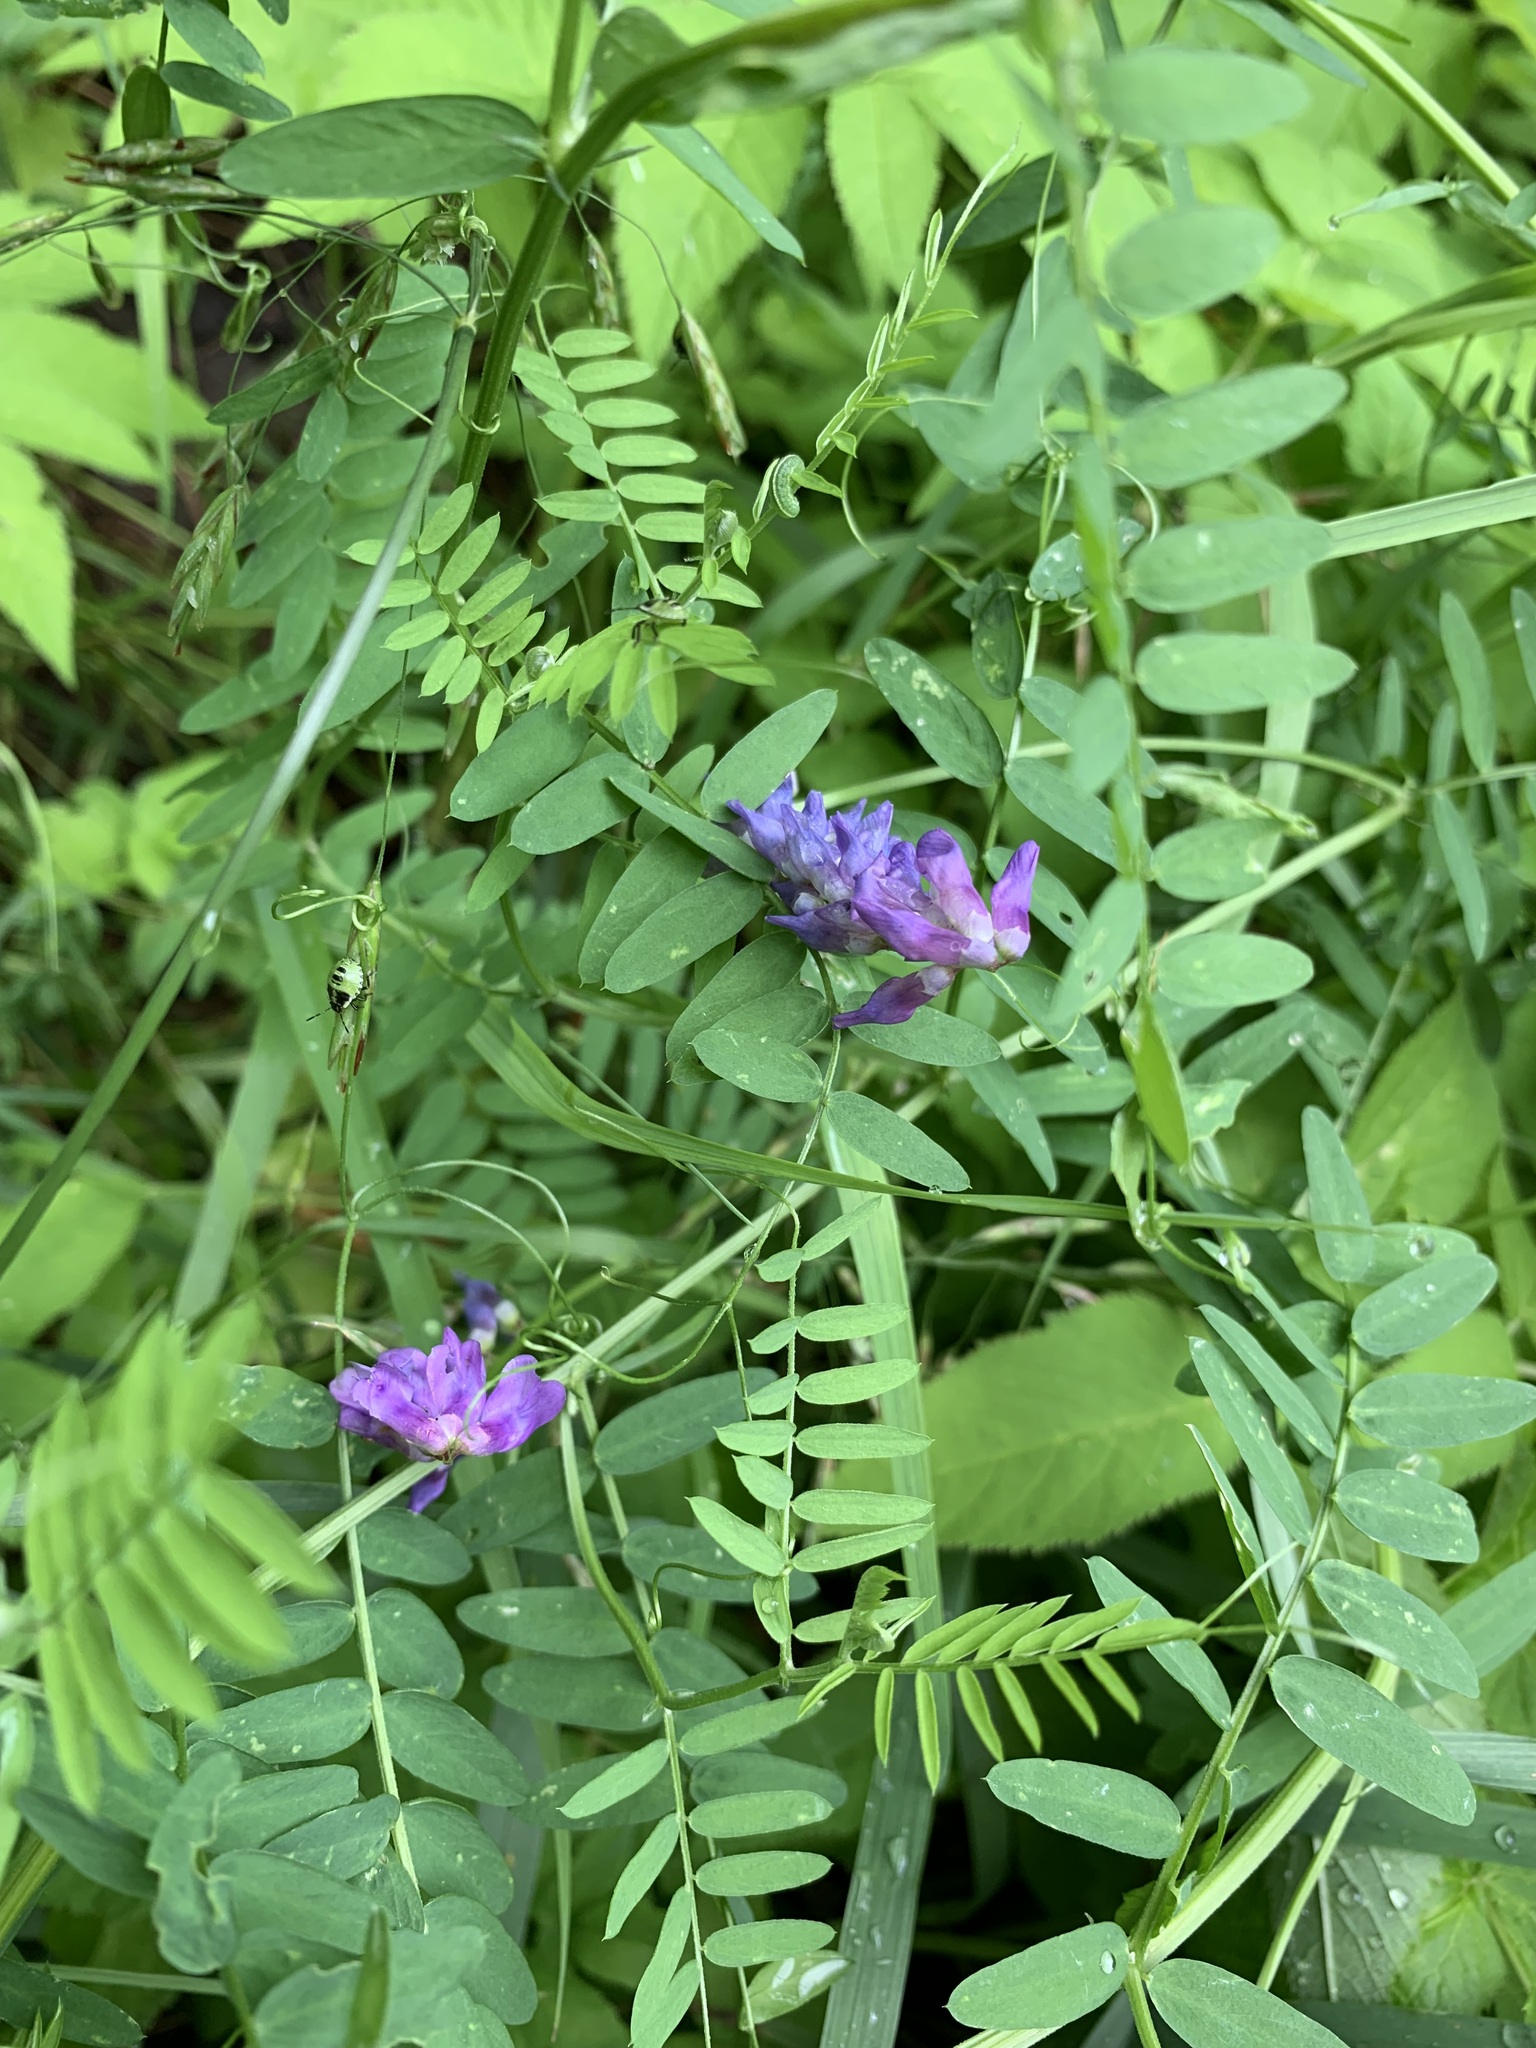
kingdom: Plantae
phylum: Tracheophyta
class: Magnoliopsida
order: Fabales
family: Fabaceae
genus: Vicia
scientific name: Vicia cracca
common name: Bird vetch
